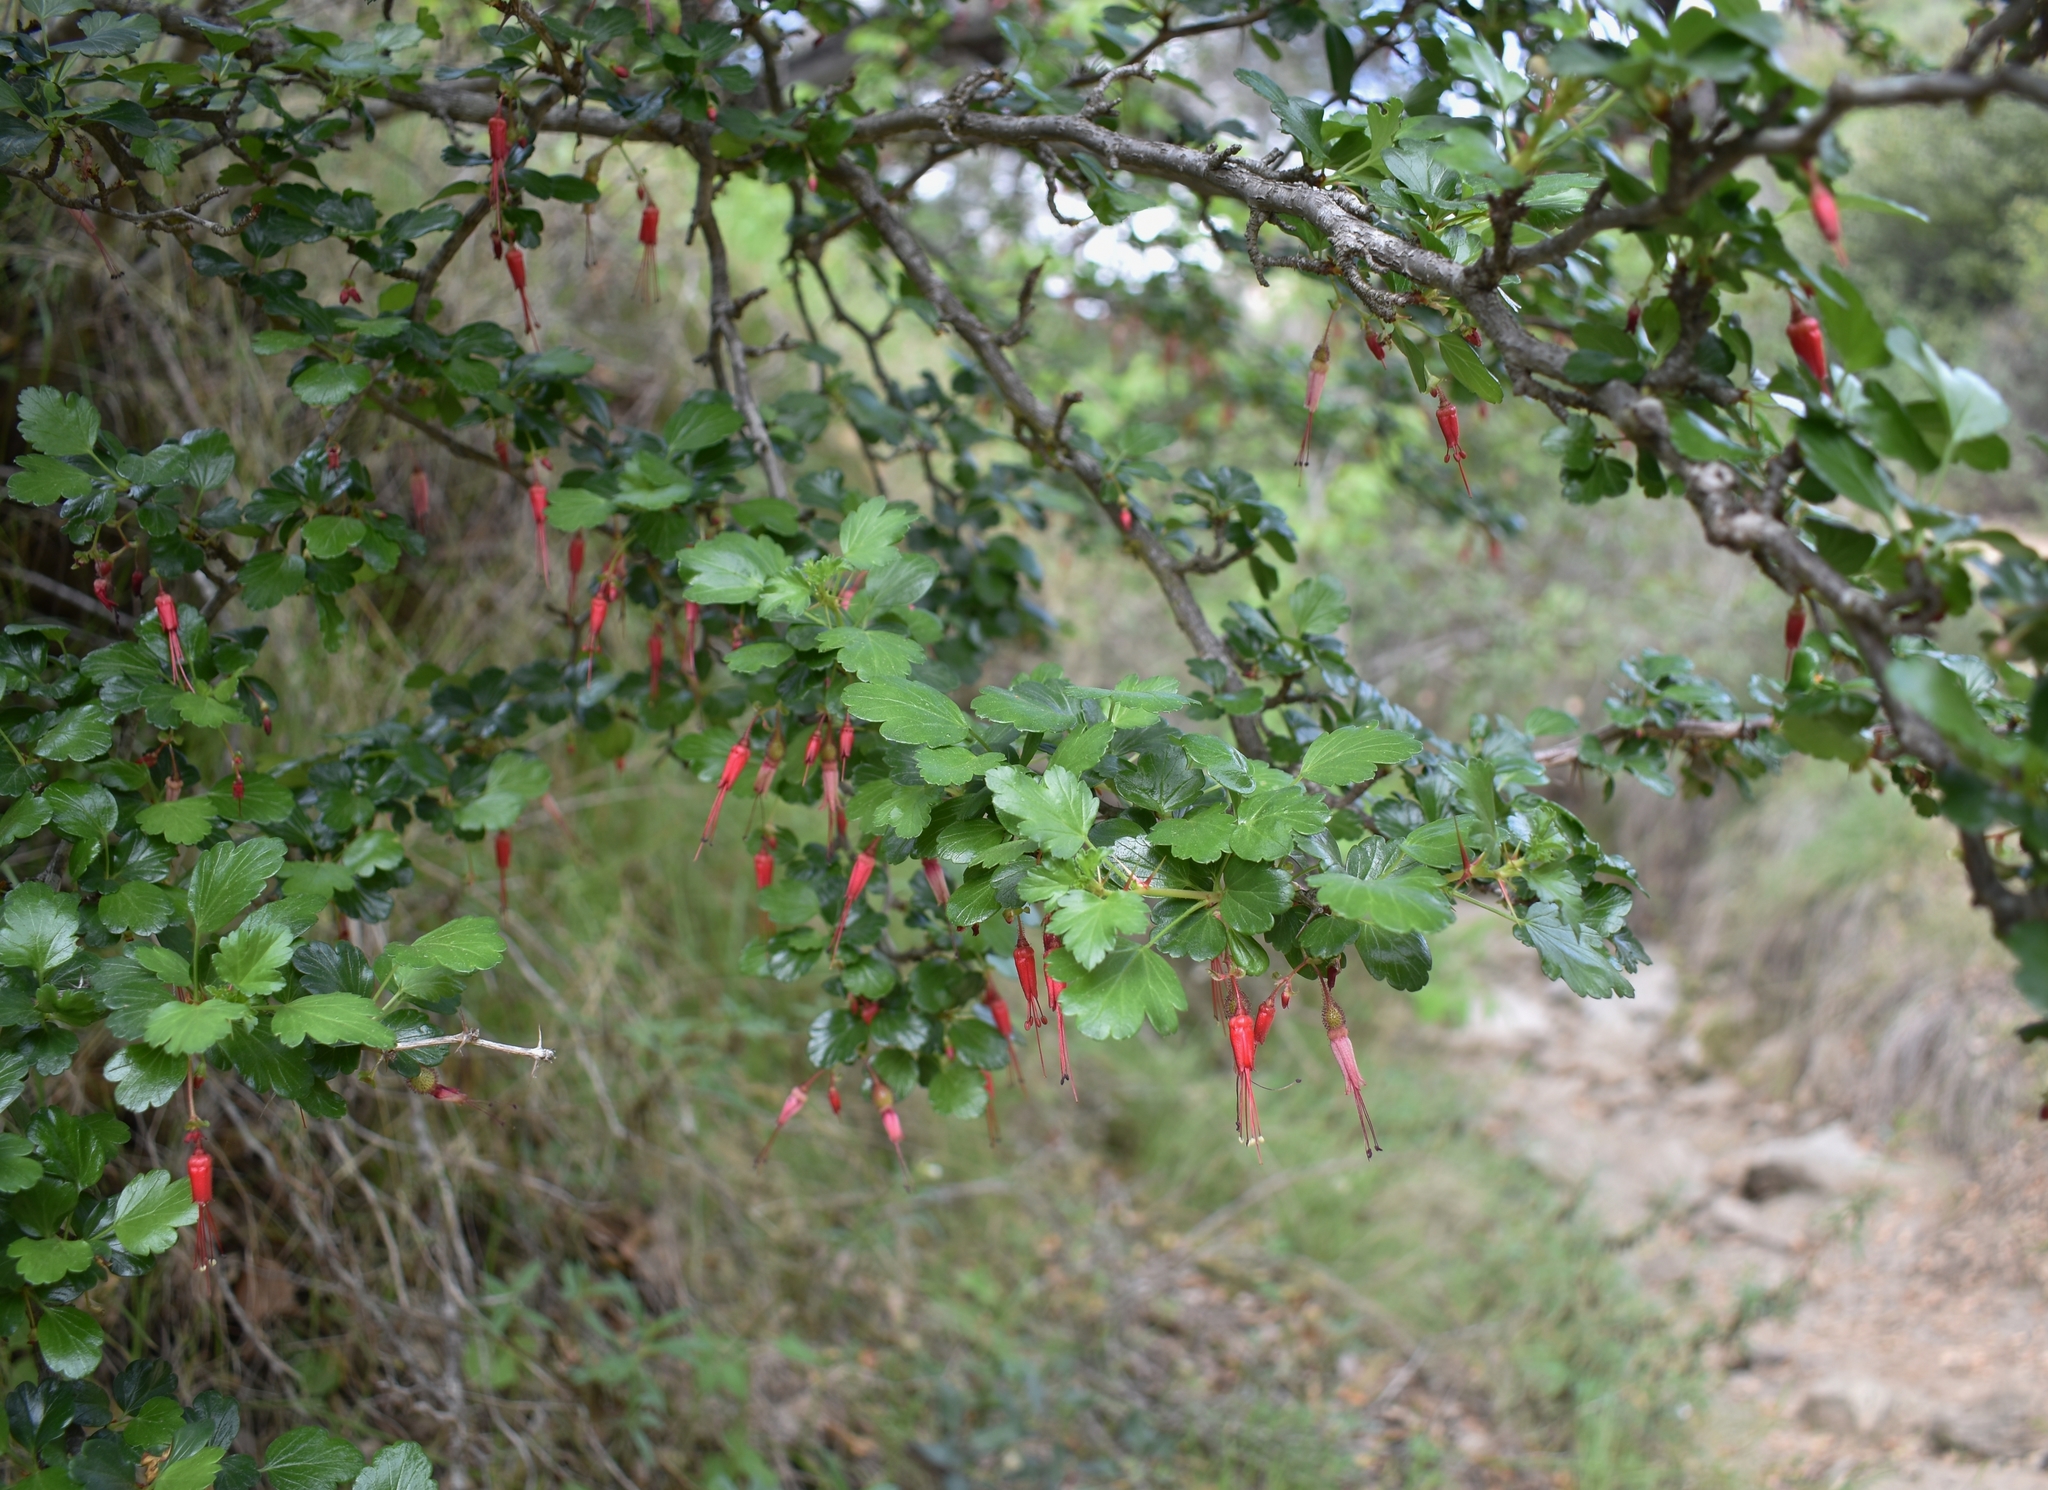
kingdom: Plantae
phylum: Tracheophyta
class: Magnoliopsida
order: Saxifragales
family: Grossulariaceae
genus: Ribes
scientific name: Ribes speciosum
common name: Fuchsia-flower gooseberry
